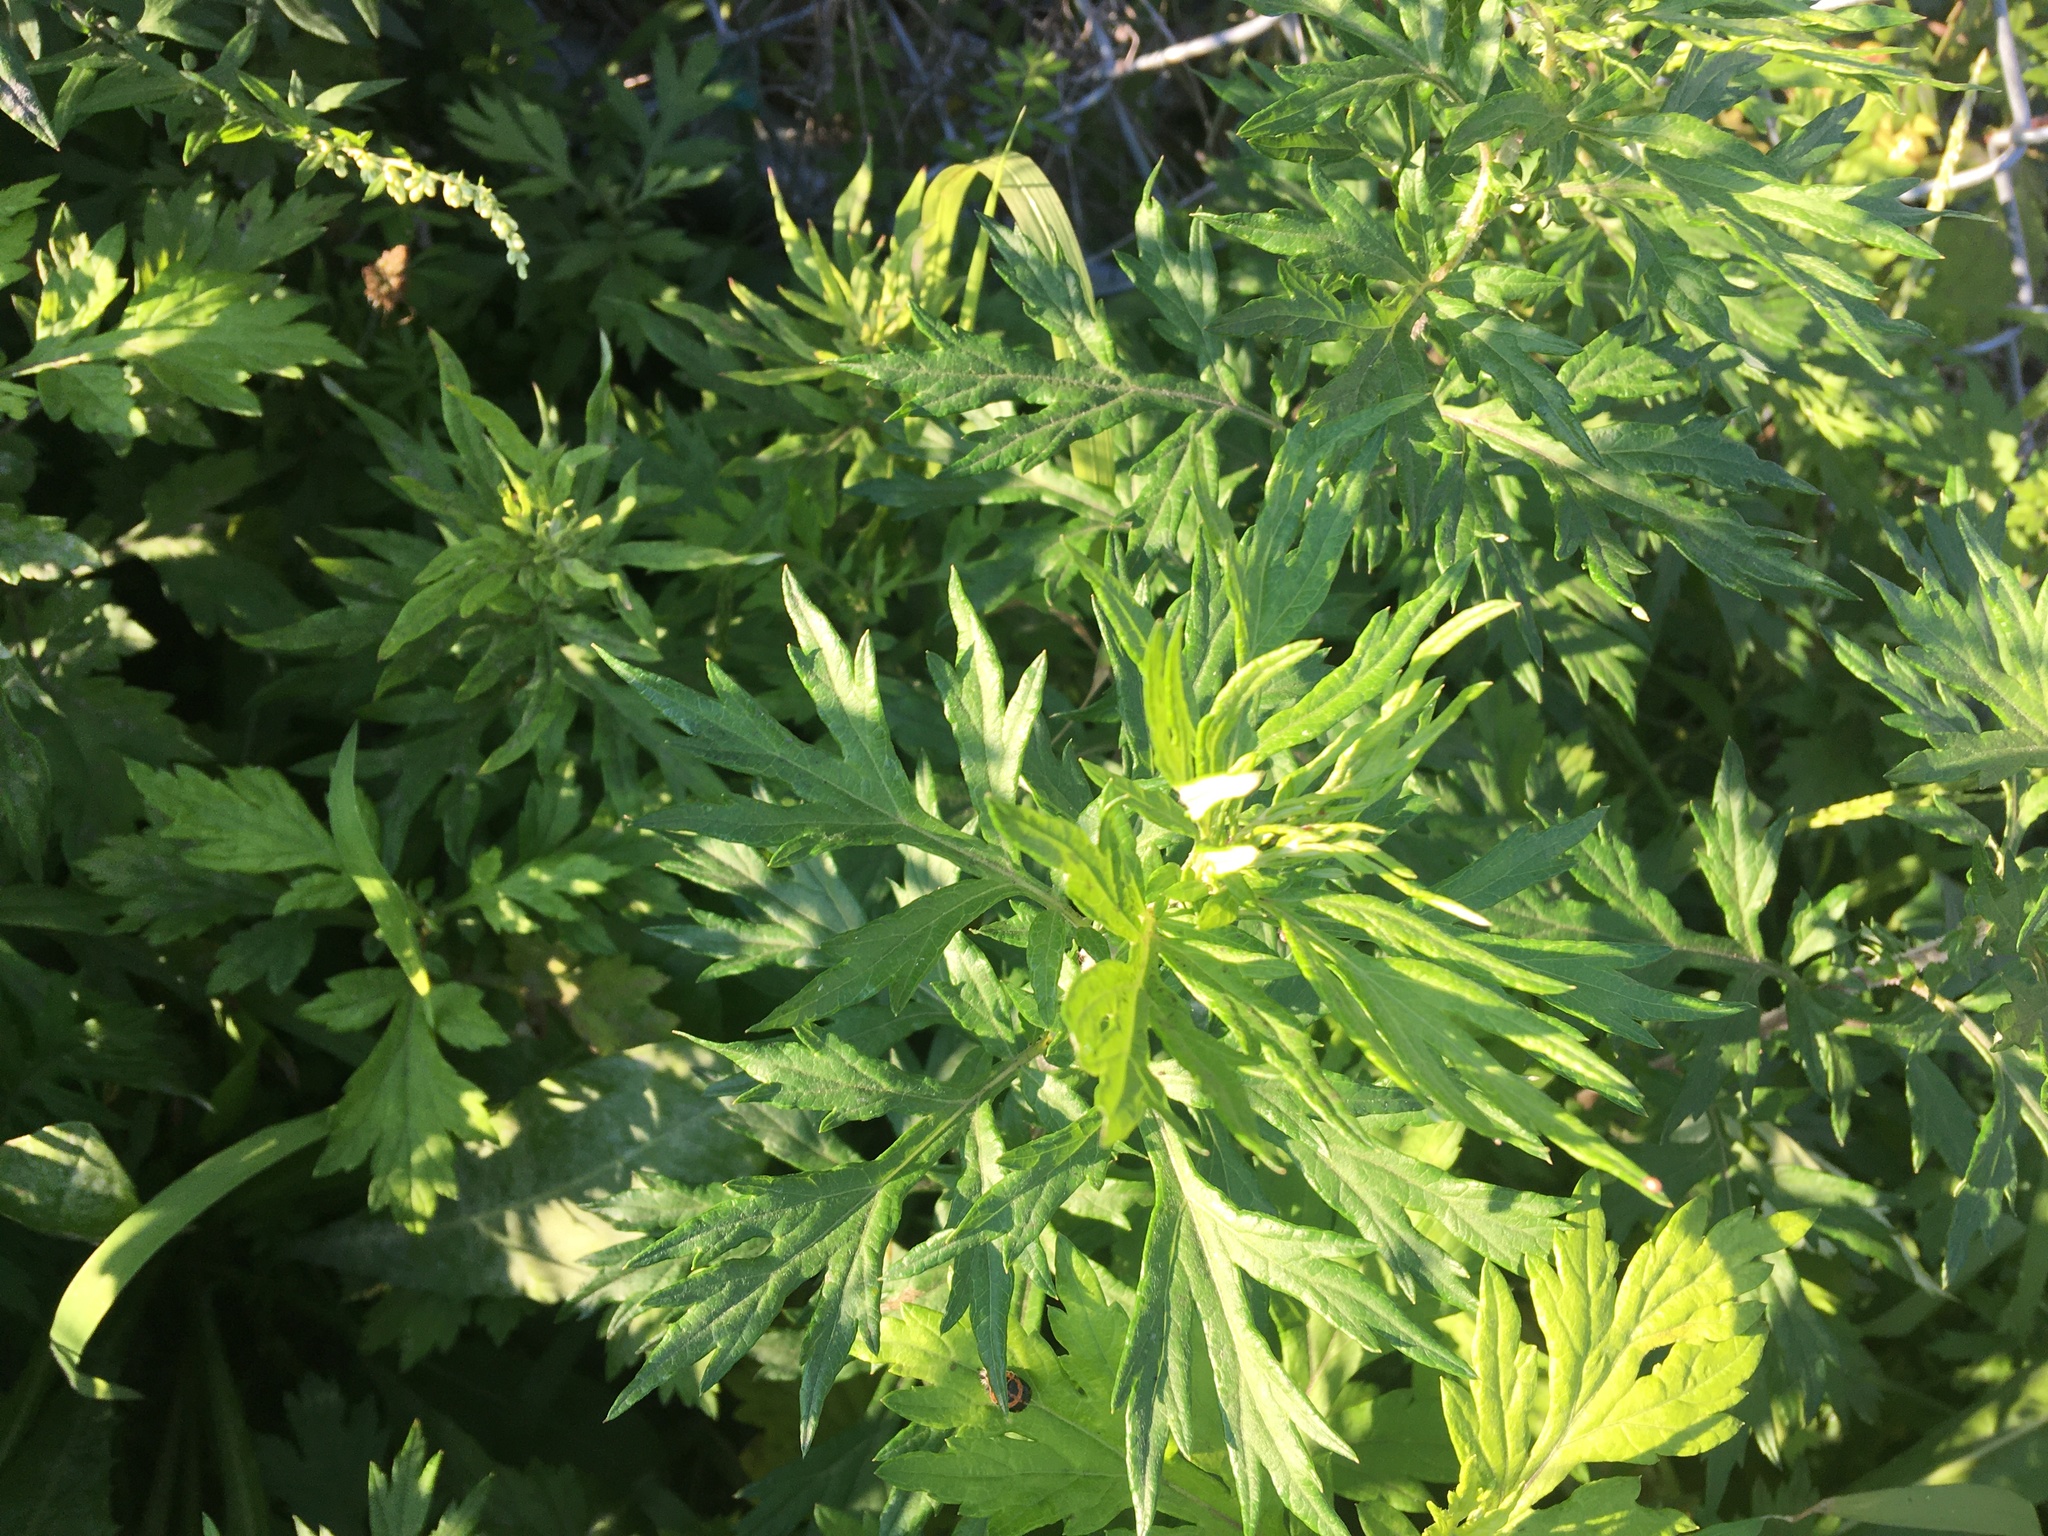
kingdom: Plantae
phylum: Tracheophyta
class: Magnoliopsida
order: Asterales
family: Asteraceae
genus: Artemisia
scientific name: Artemisia vulgaris
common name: Mugwort
